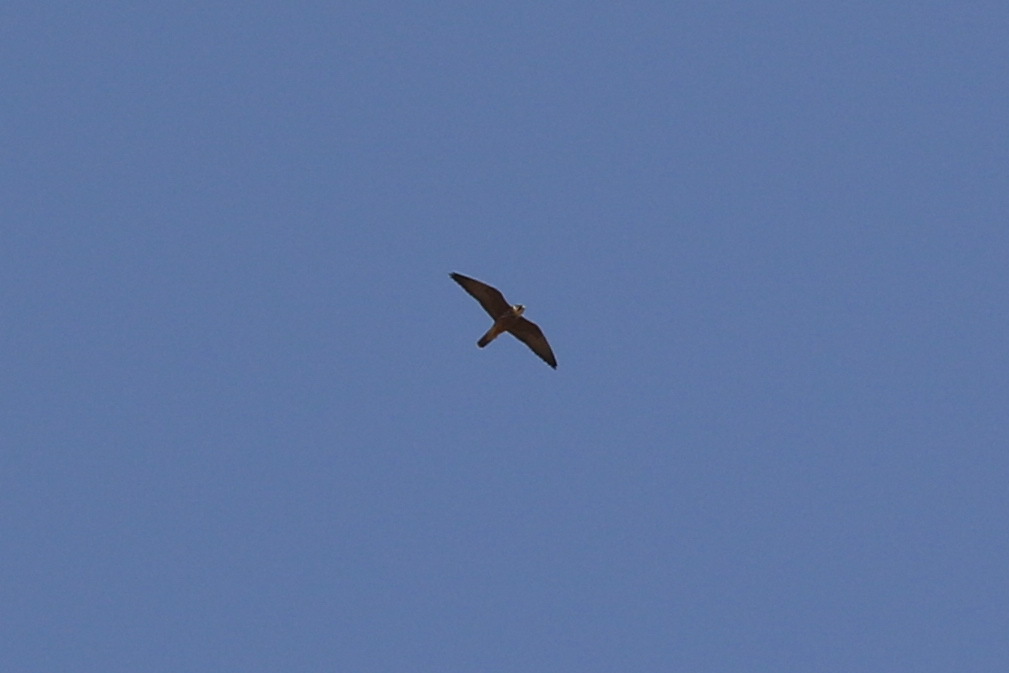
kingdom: Animalia
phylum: Chordata
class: Aves
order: Falconiformes
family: Falconidae
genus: Falco
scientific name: Falco subbuteo
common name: Eurasian hobby
